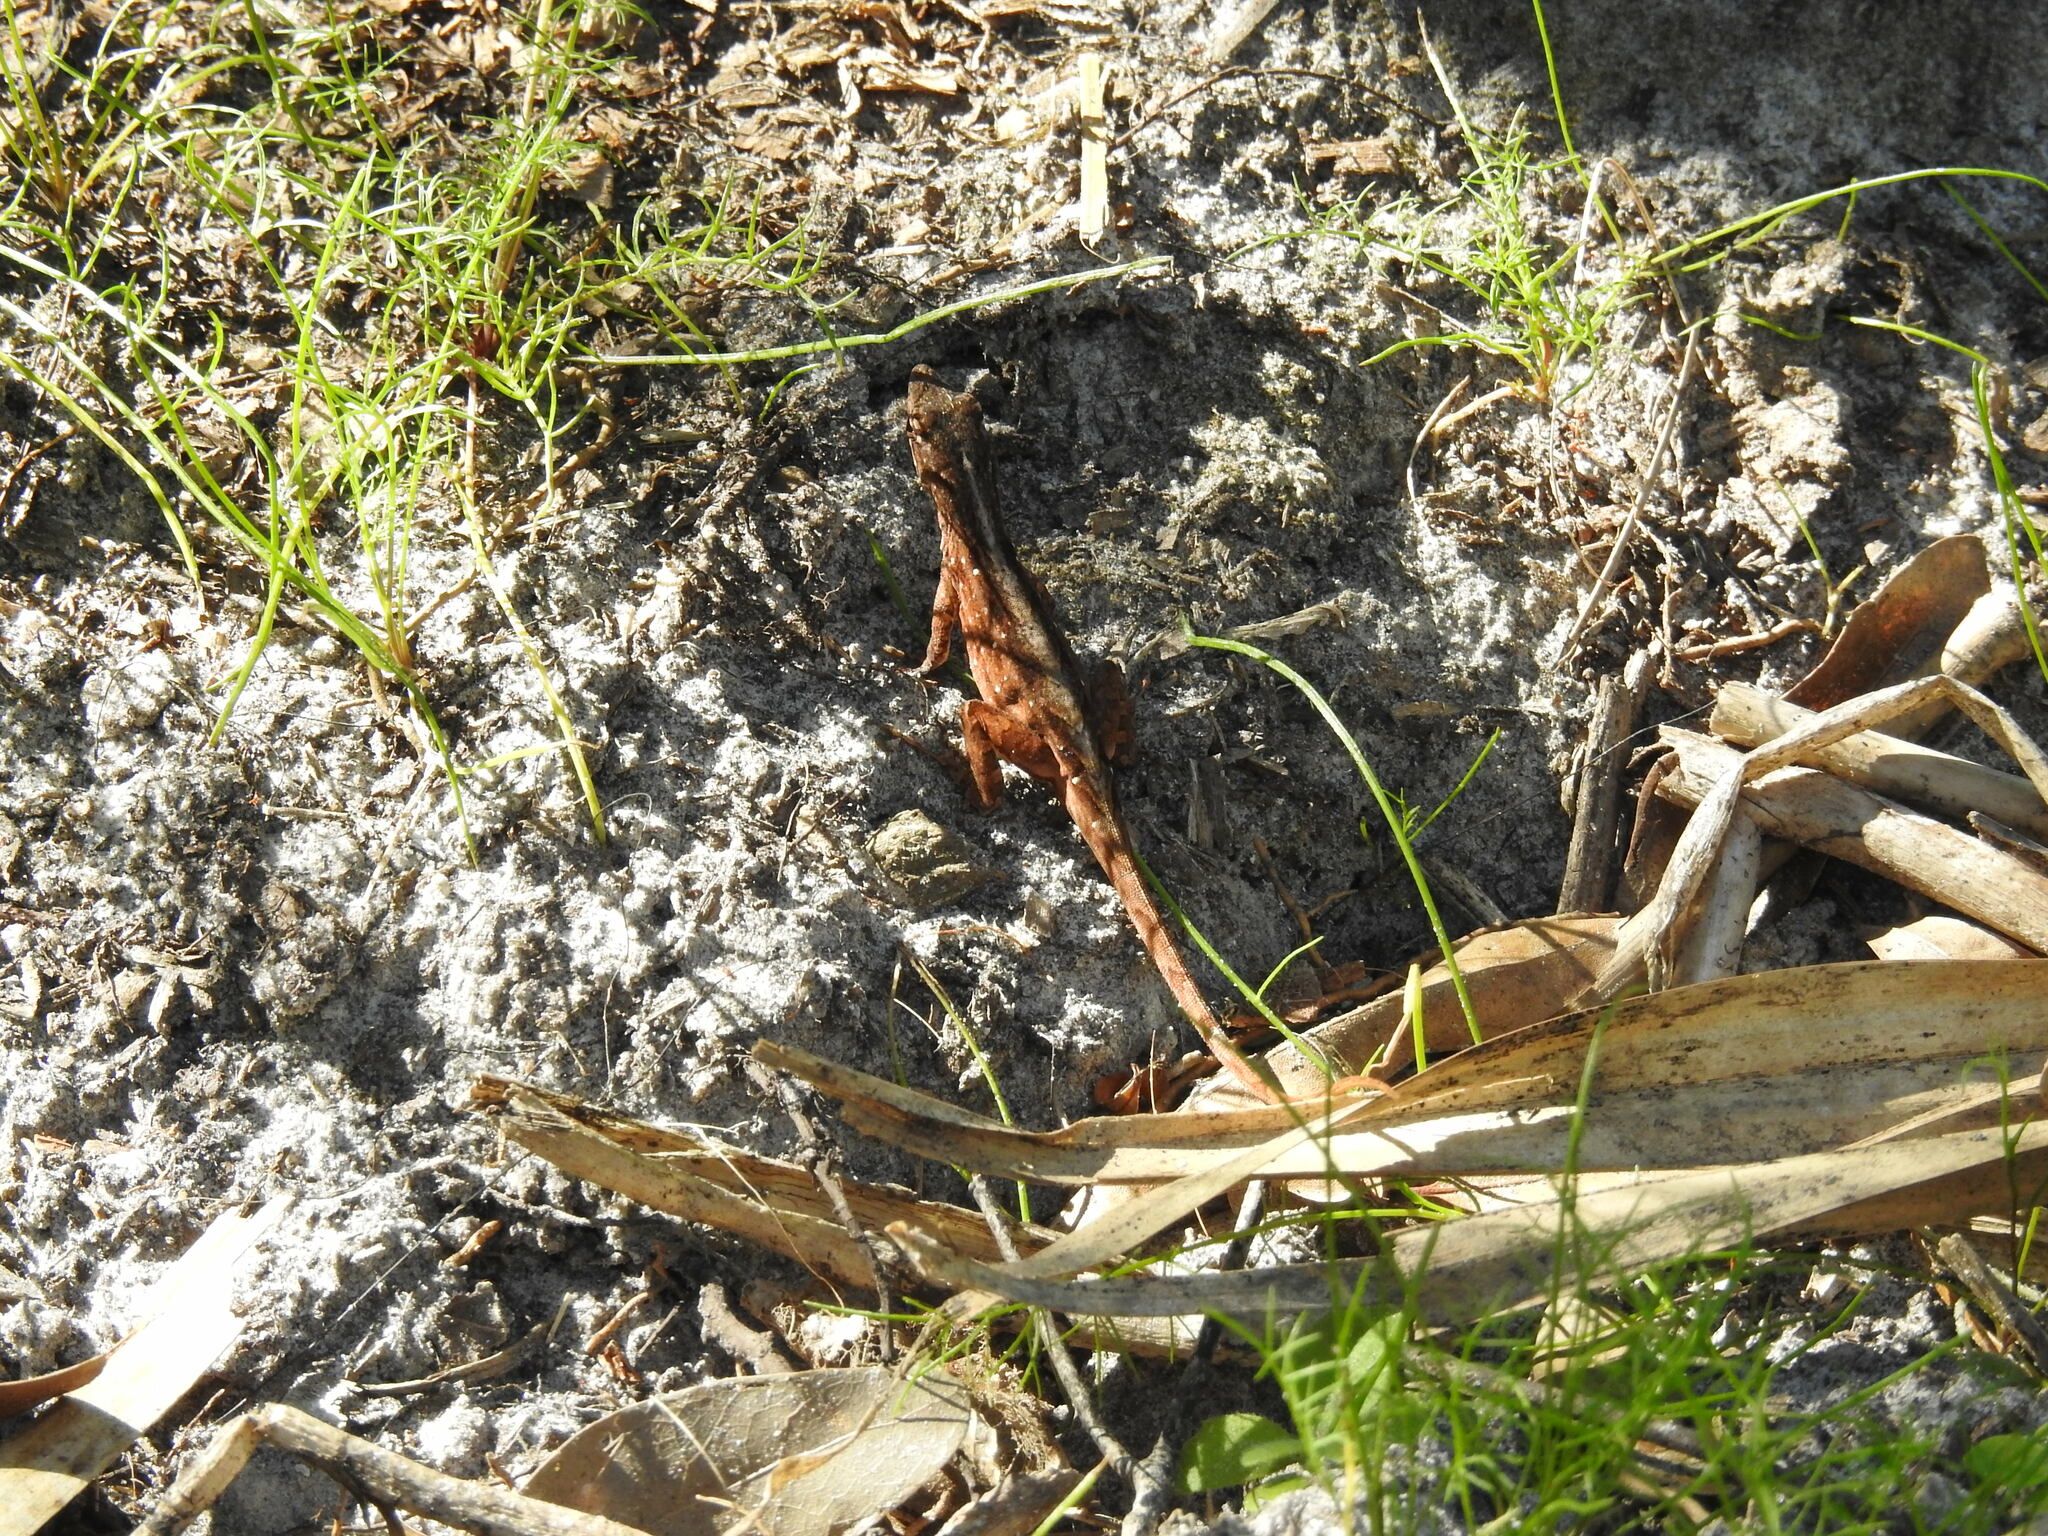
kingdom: Animalia
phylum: Chordata
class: Squamata
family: Dactyloidae
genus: Anolis
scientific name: Anolis sagrei
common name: Brown anole
